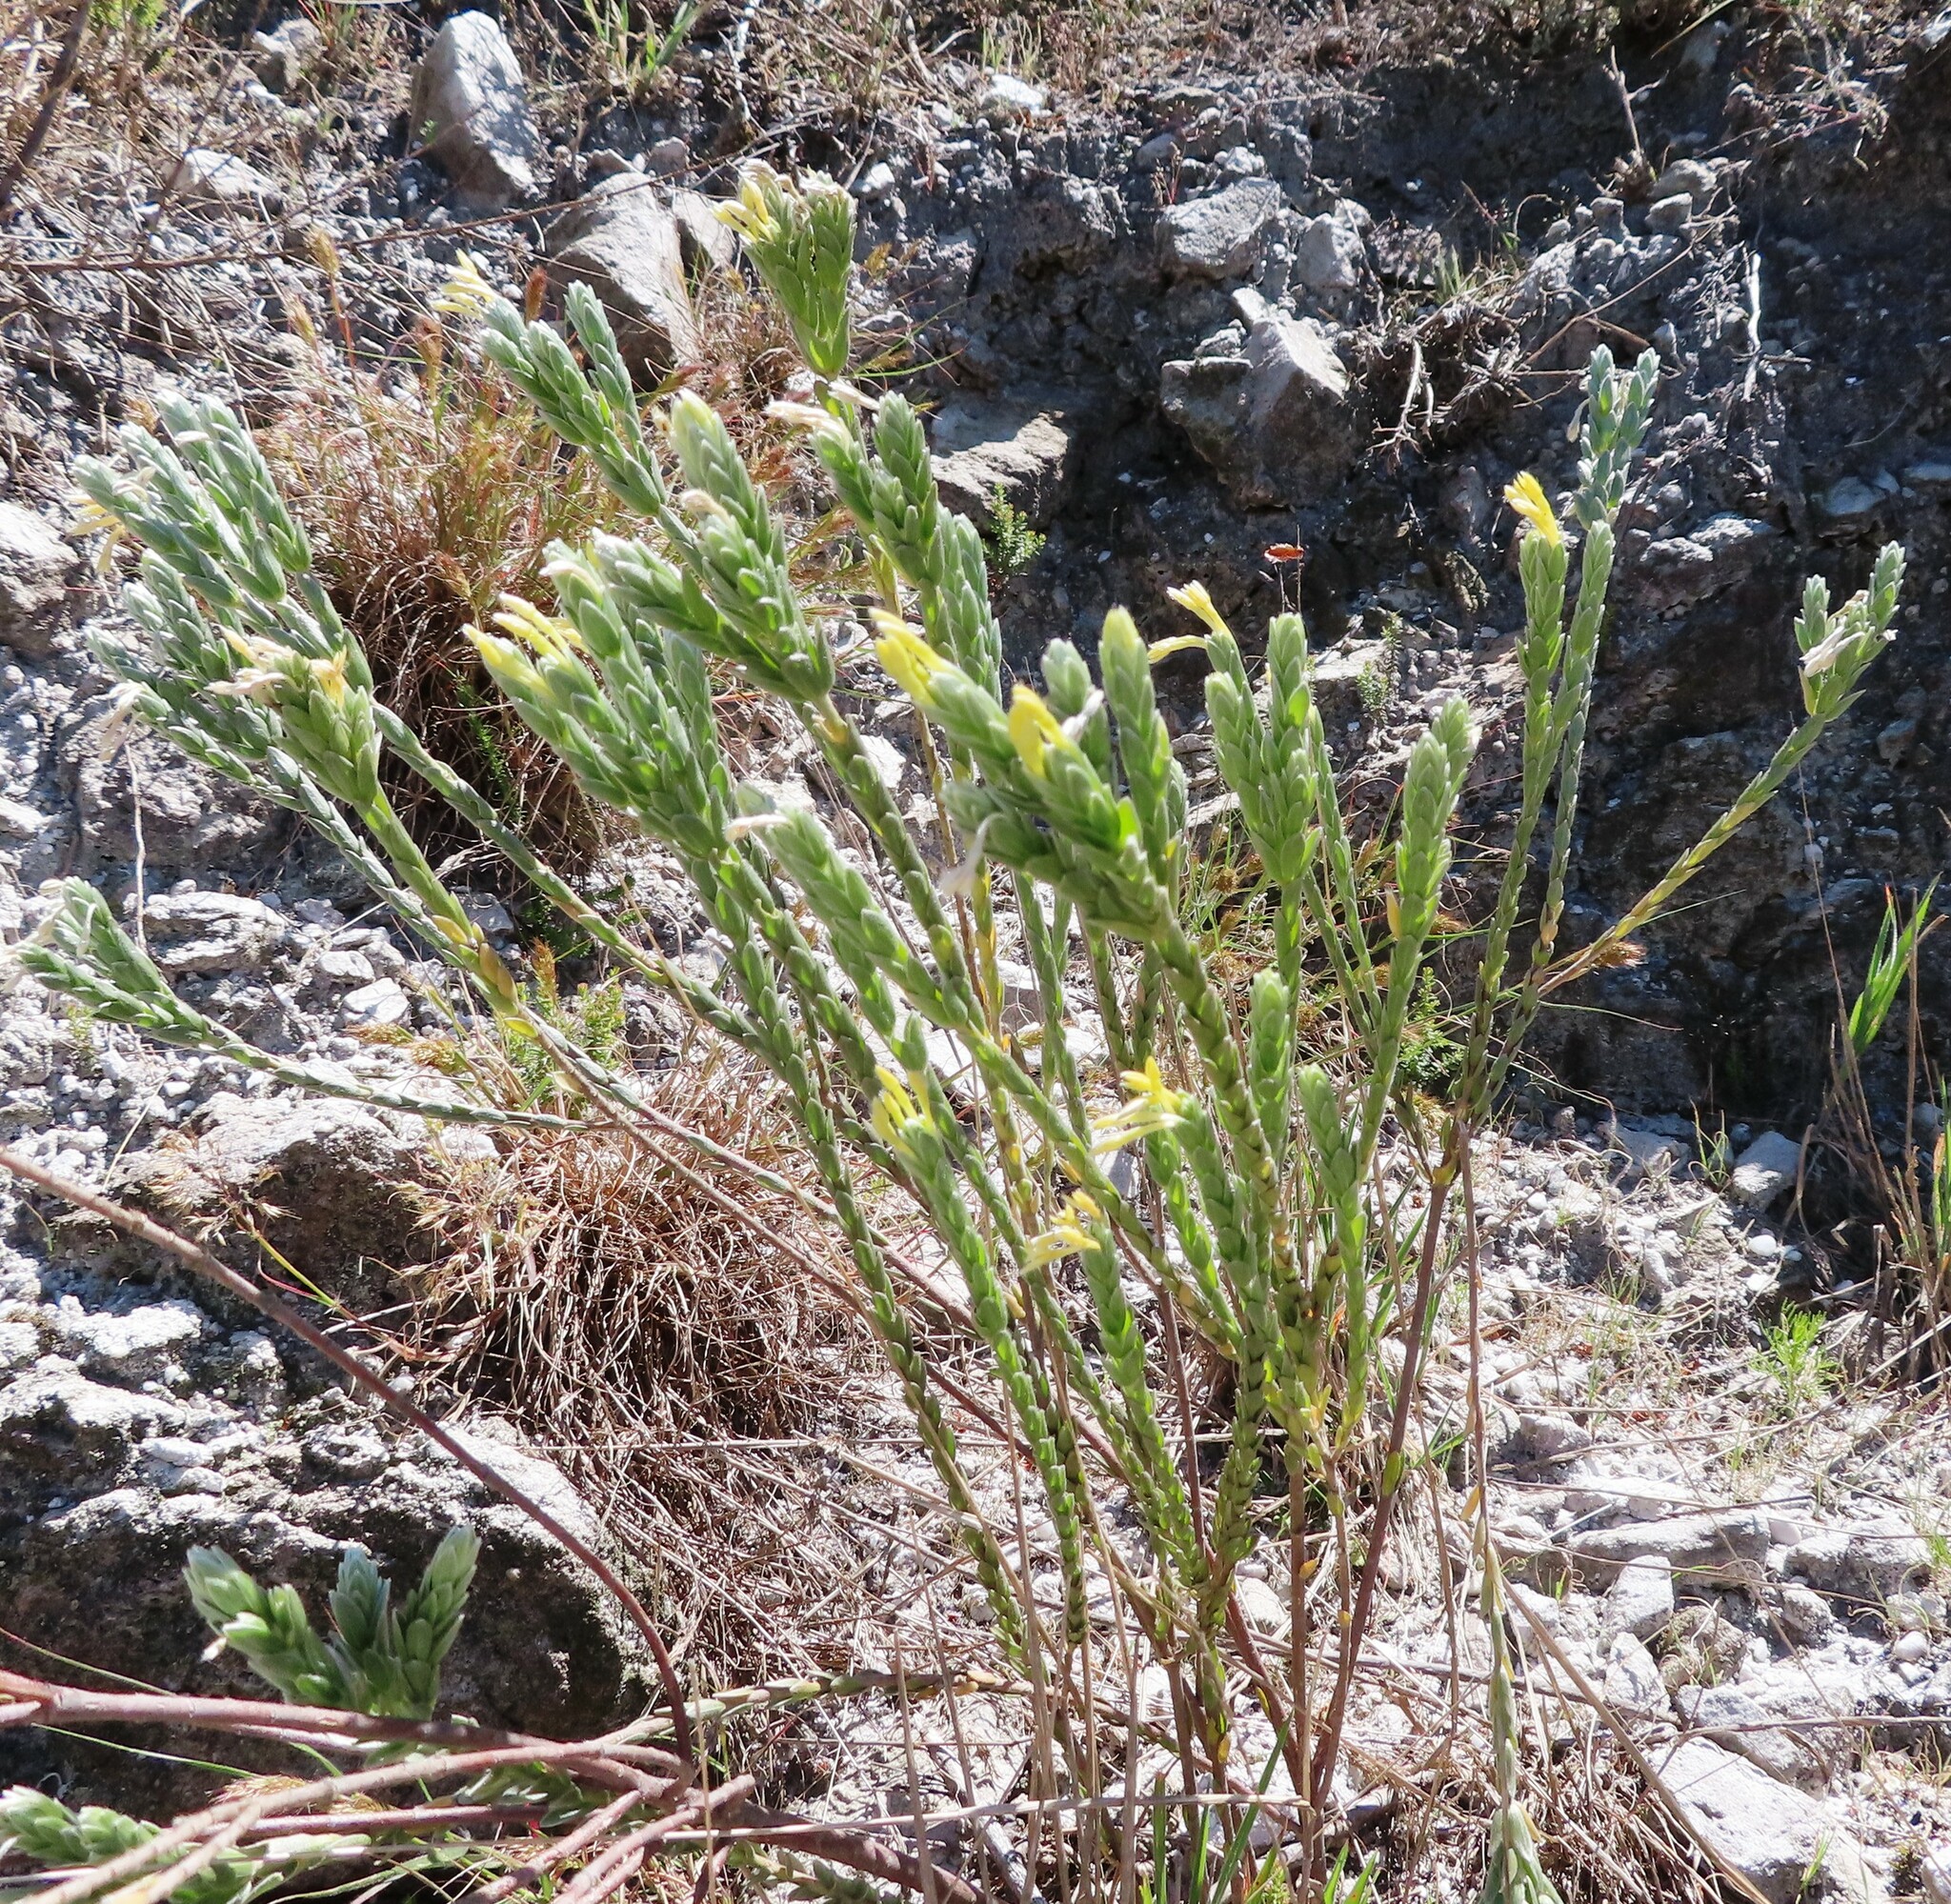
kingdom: Plantae
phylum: Tracheophyta
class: Magnoliopsida
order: Malvales
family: Thymelaeaceae
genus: Gnidia
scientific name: Gnidia anomala
